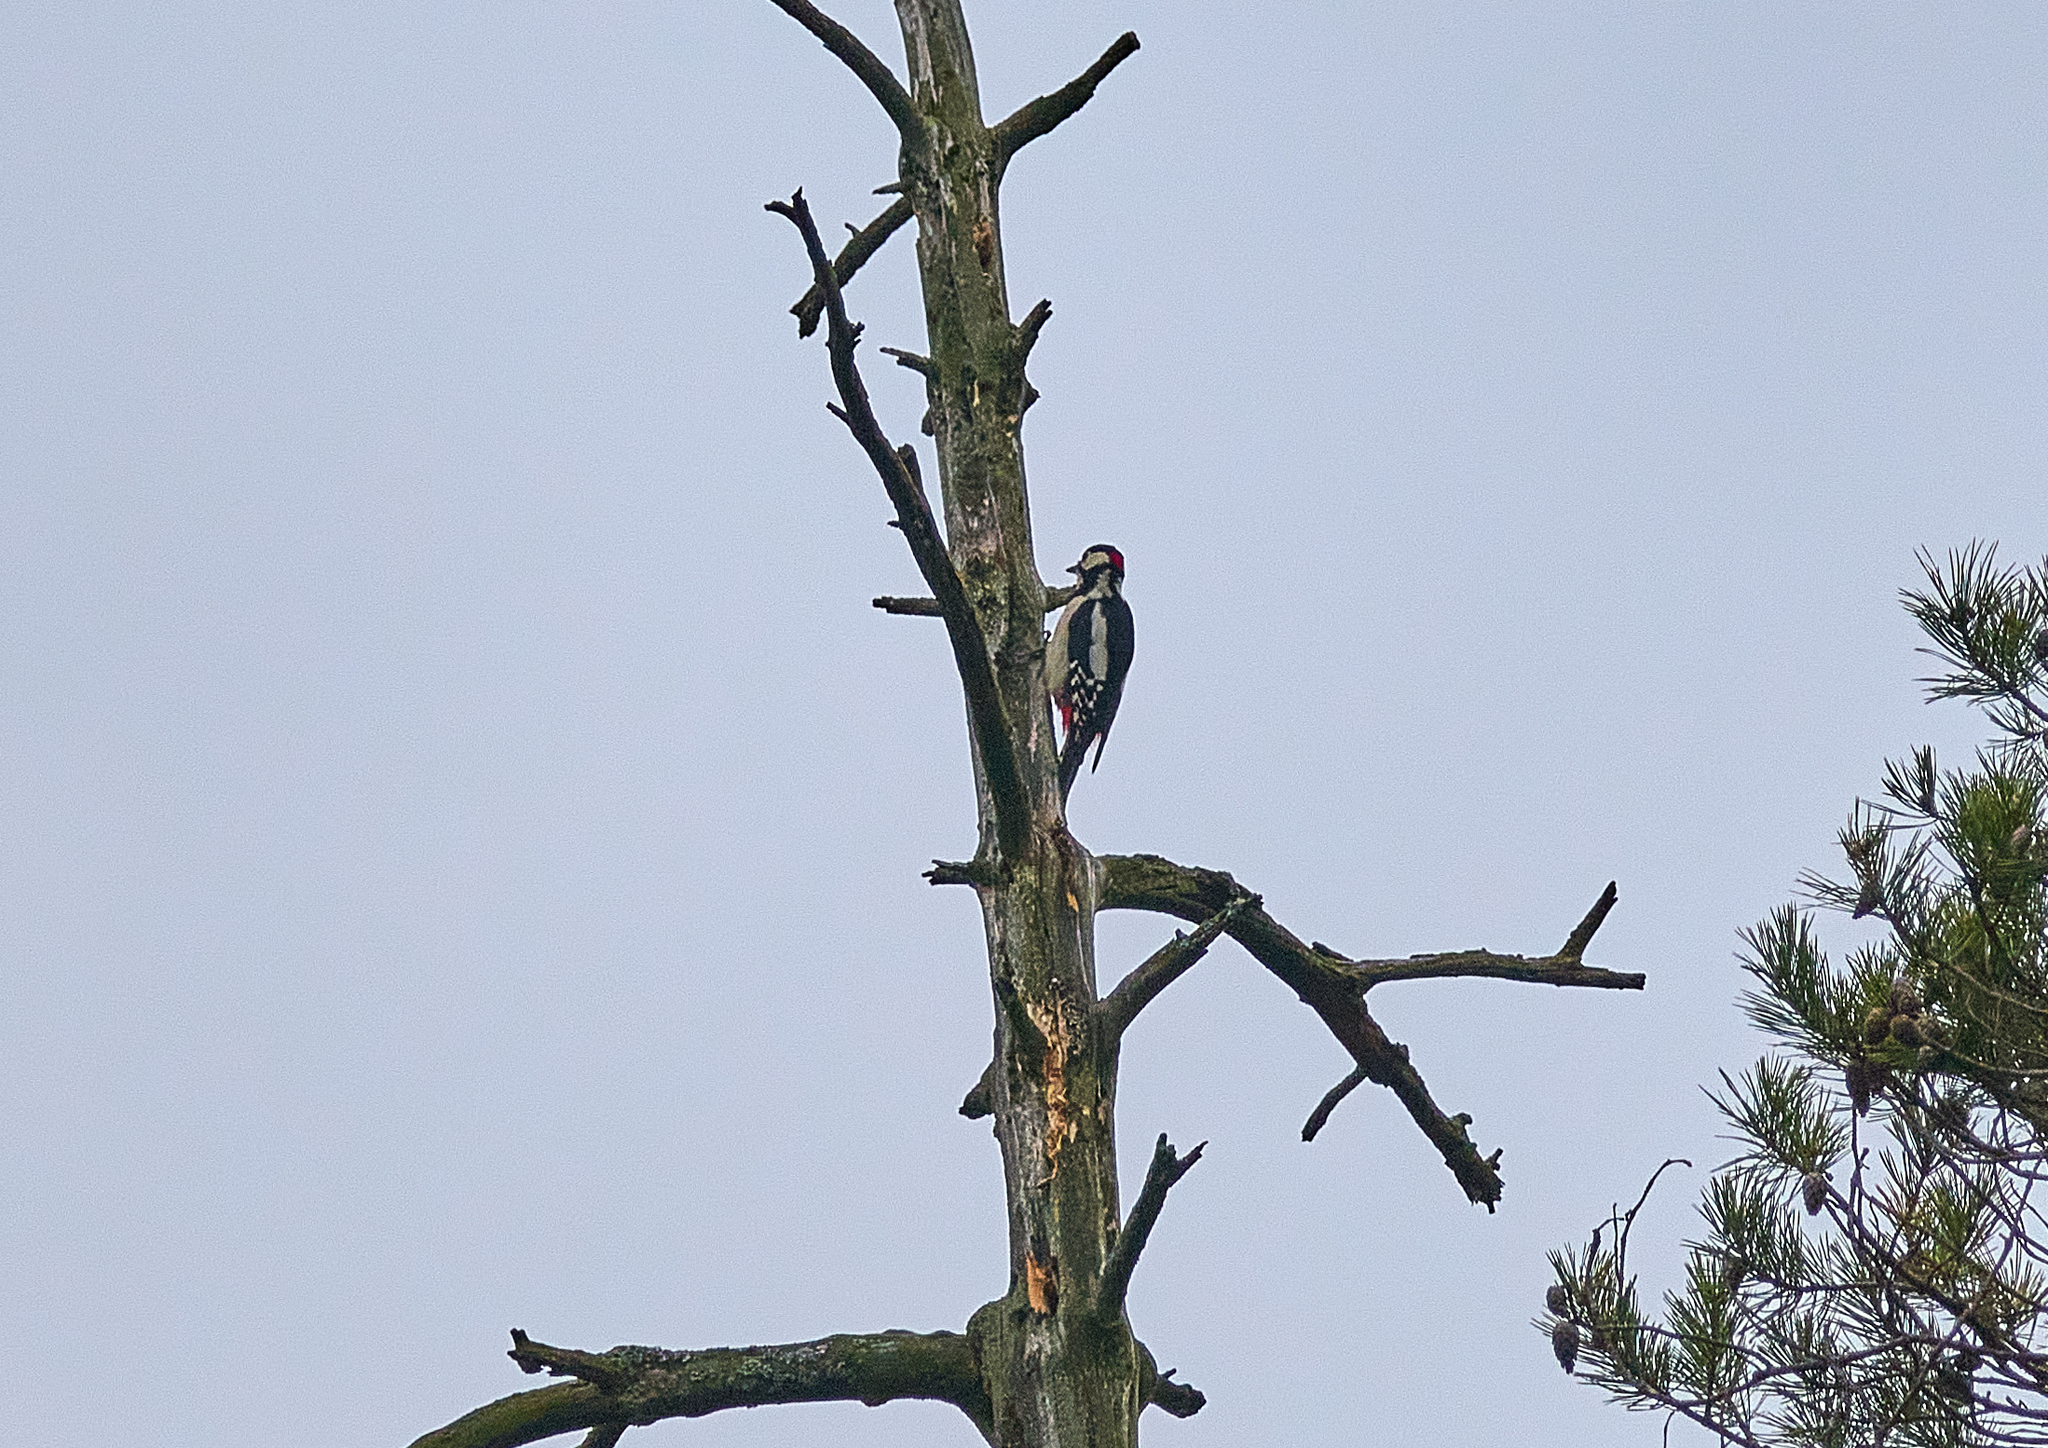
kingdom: Animalia
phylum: Chordata
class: Aves
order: Piciformes
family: Picidae
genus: Dendrocopos
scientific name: Dendrocopos major
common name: Great spotted woodpecker
